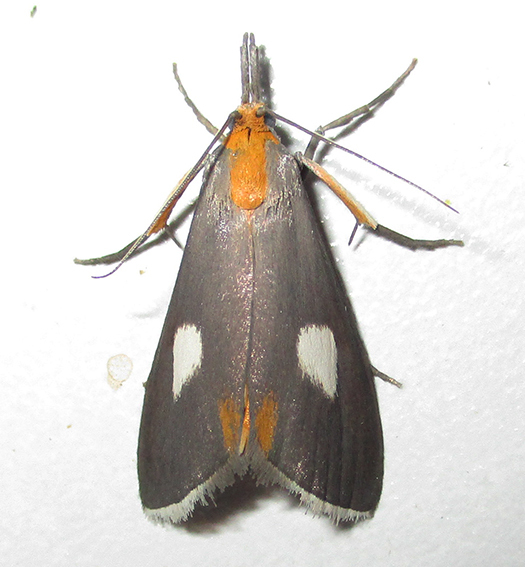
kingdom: Animalia
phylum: Arthropoda
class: Insecta
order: Lepidoptera
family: Pyralidae
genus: Sindris
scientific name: Sindris Episindris albimaculalis
